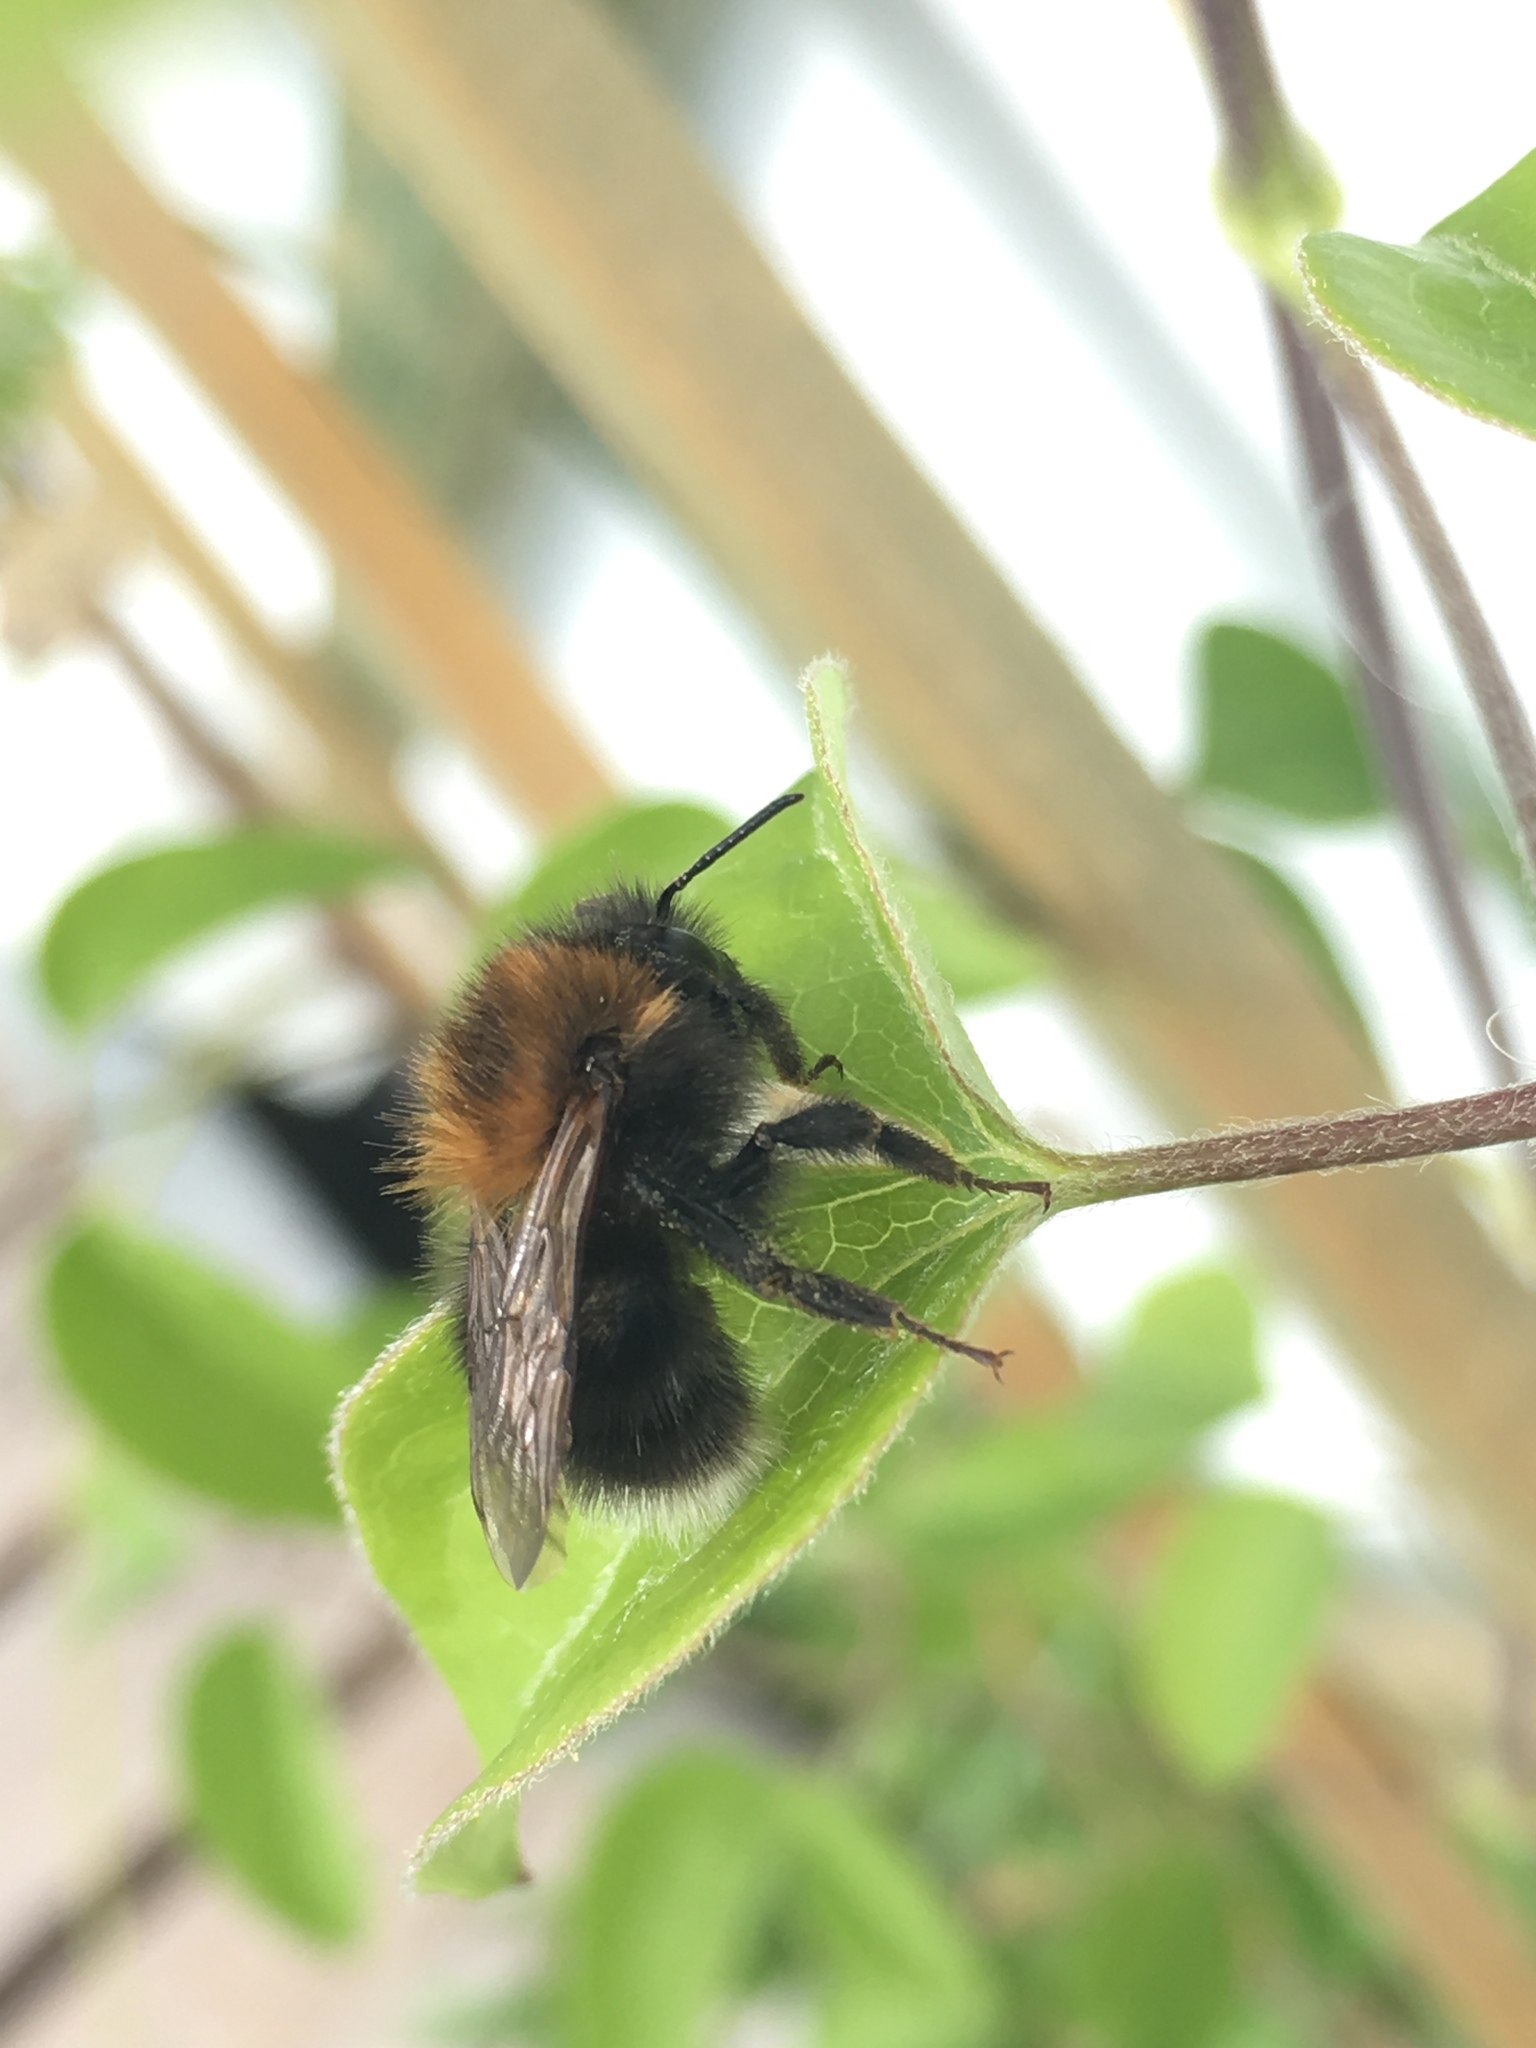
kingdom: Animalia
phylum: Arthropoda
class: Insecta
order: Hymenoptera
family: Apidae
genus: Bombus
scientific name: Bombus hypnorum
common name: New garden bumblebee
